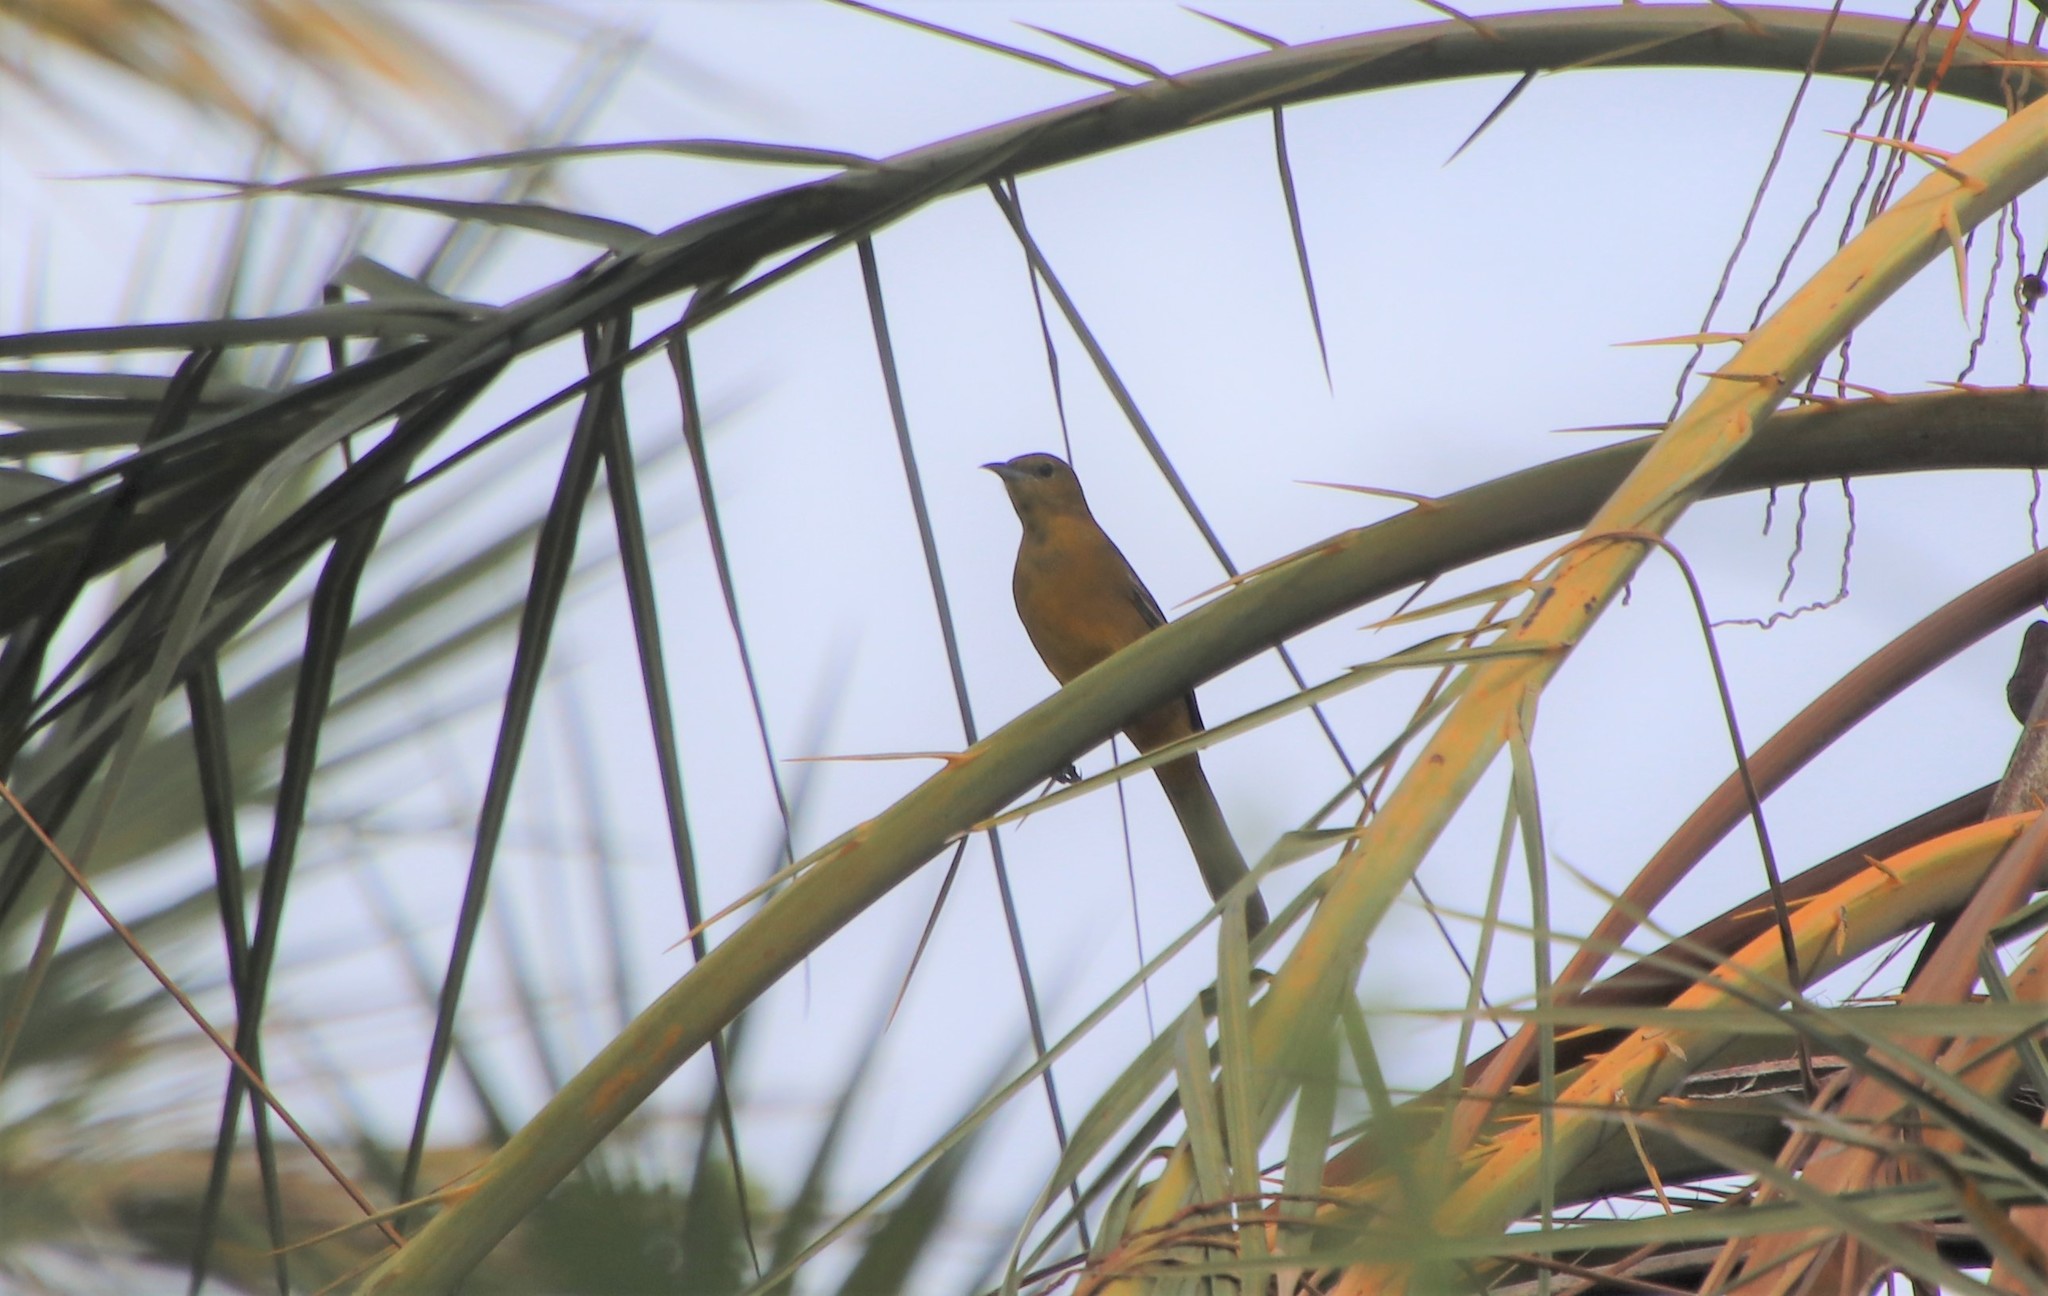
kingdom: Animalia
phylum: Chordata
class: Aves
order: Passeriformes
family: Icteridae
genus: Icterus
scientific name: Icterus cucullatus
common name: Hooded oriole
